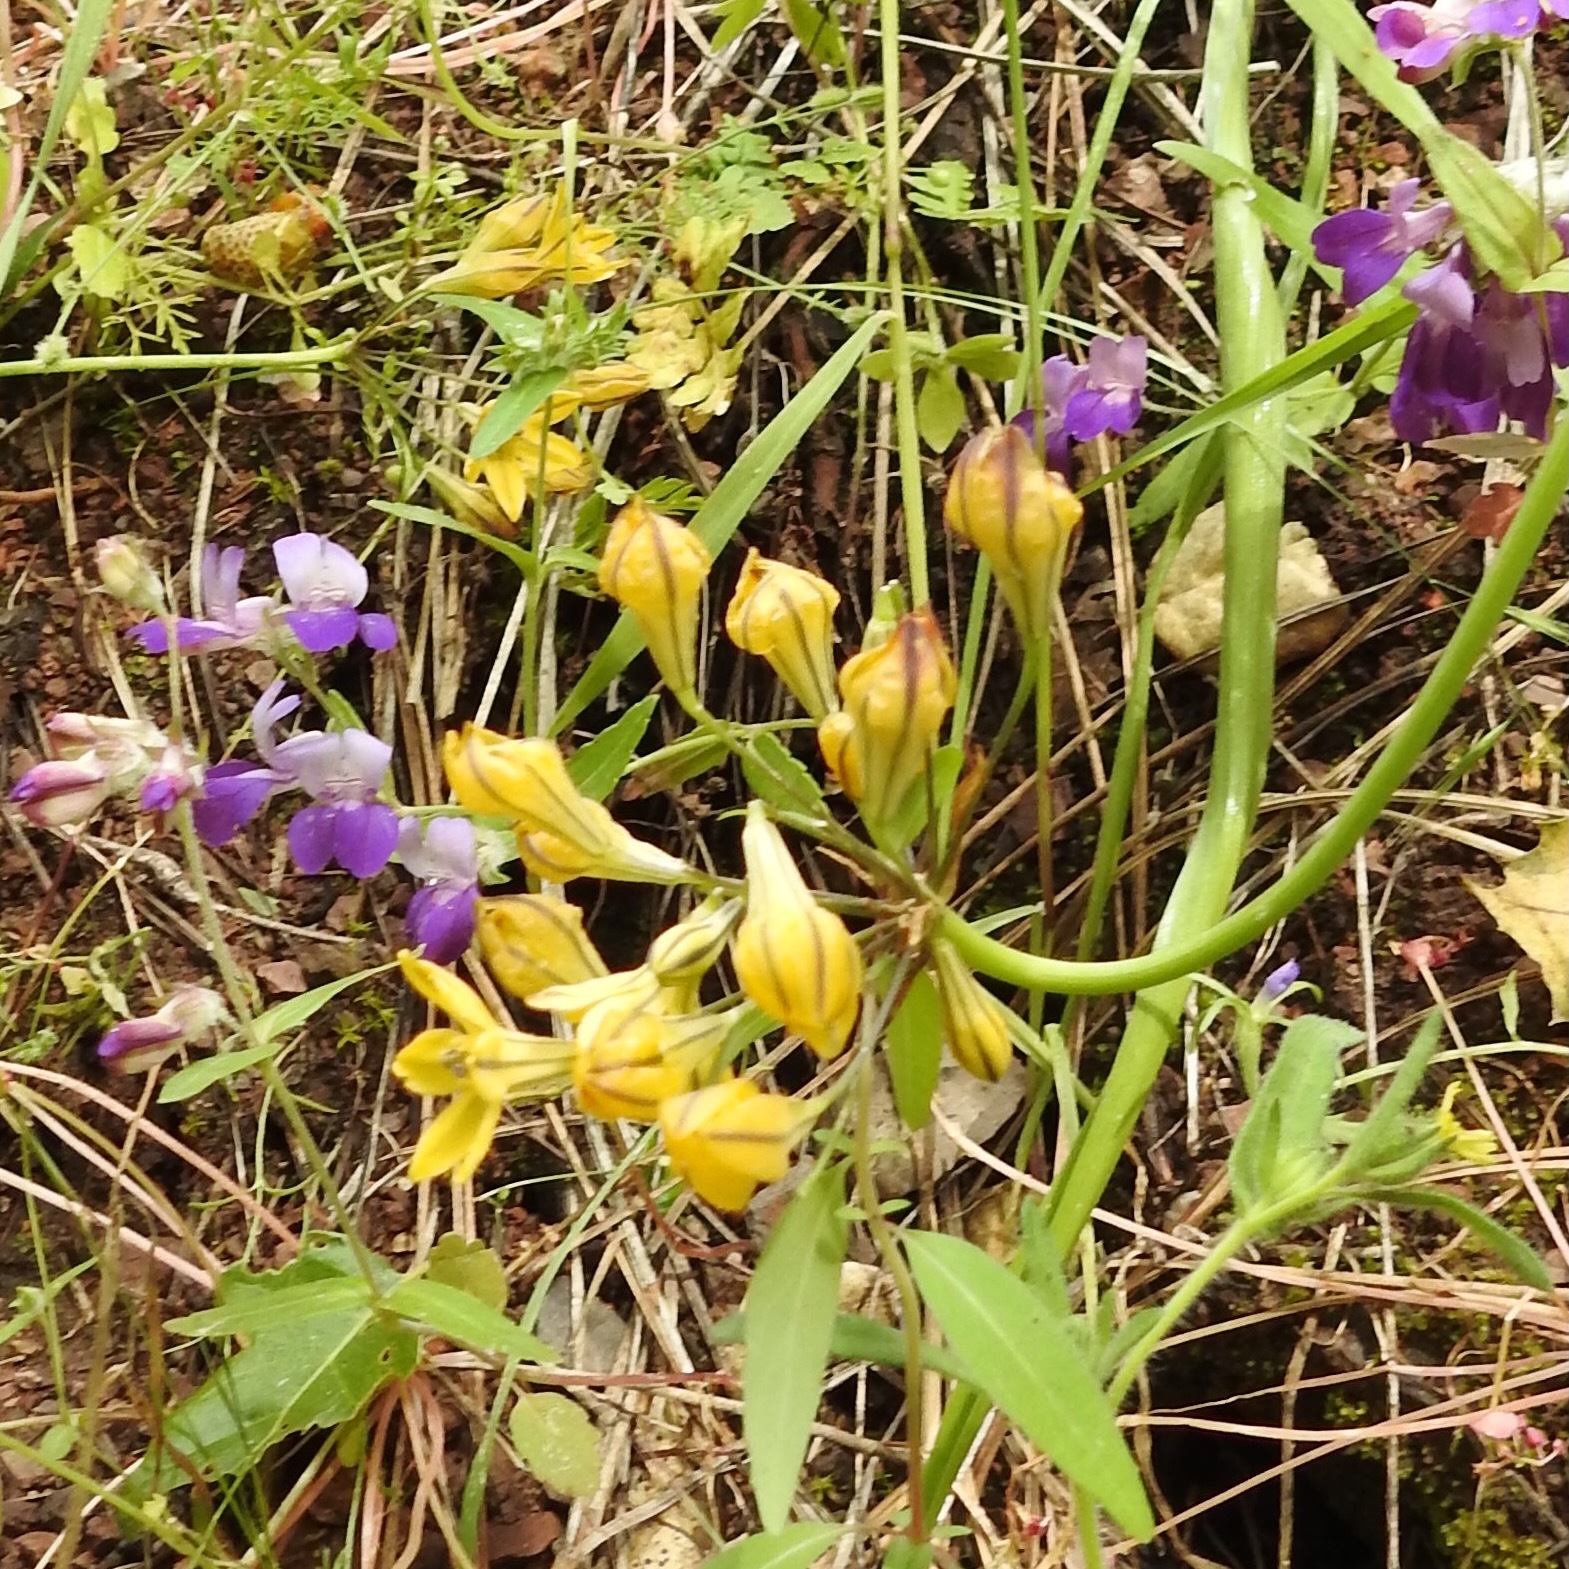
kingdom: Plantae
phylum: Tracheophyta
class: Liliopsida
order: Asparagales
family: Asparagaceae
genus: Triteleia
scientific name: Triteleia lugens
